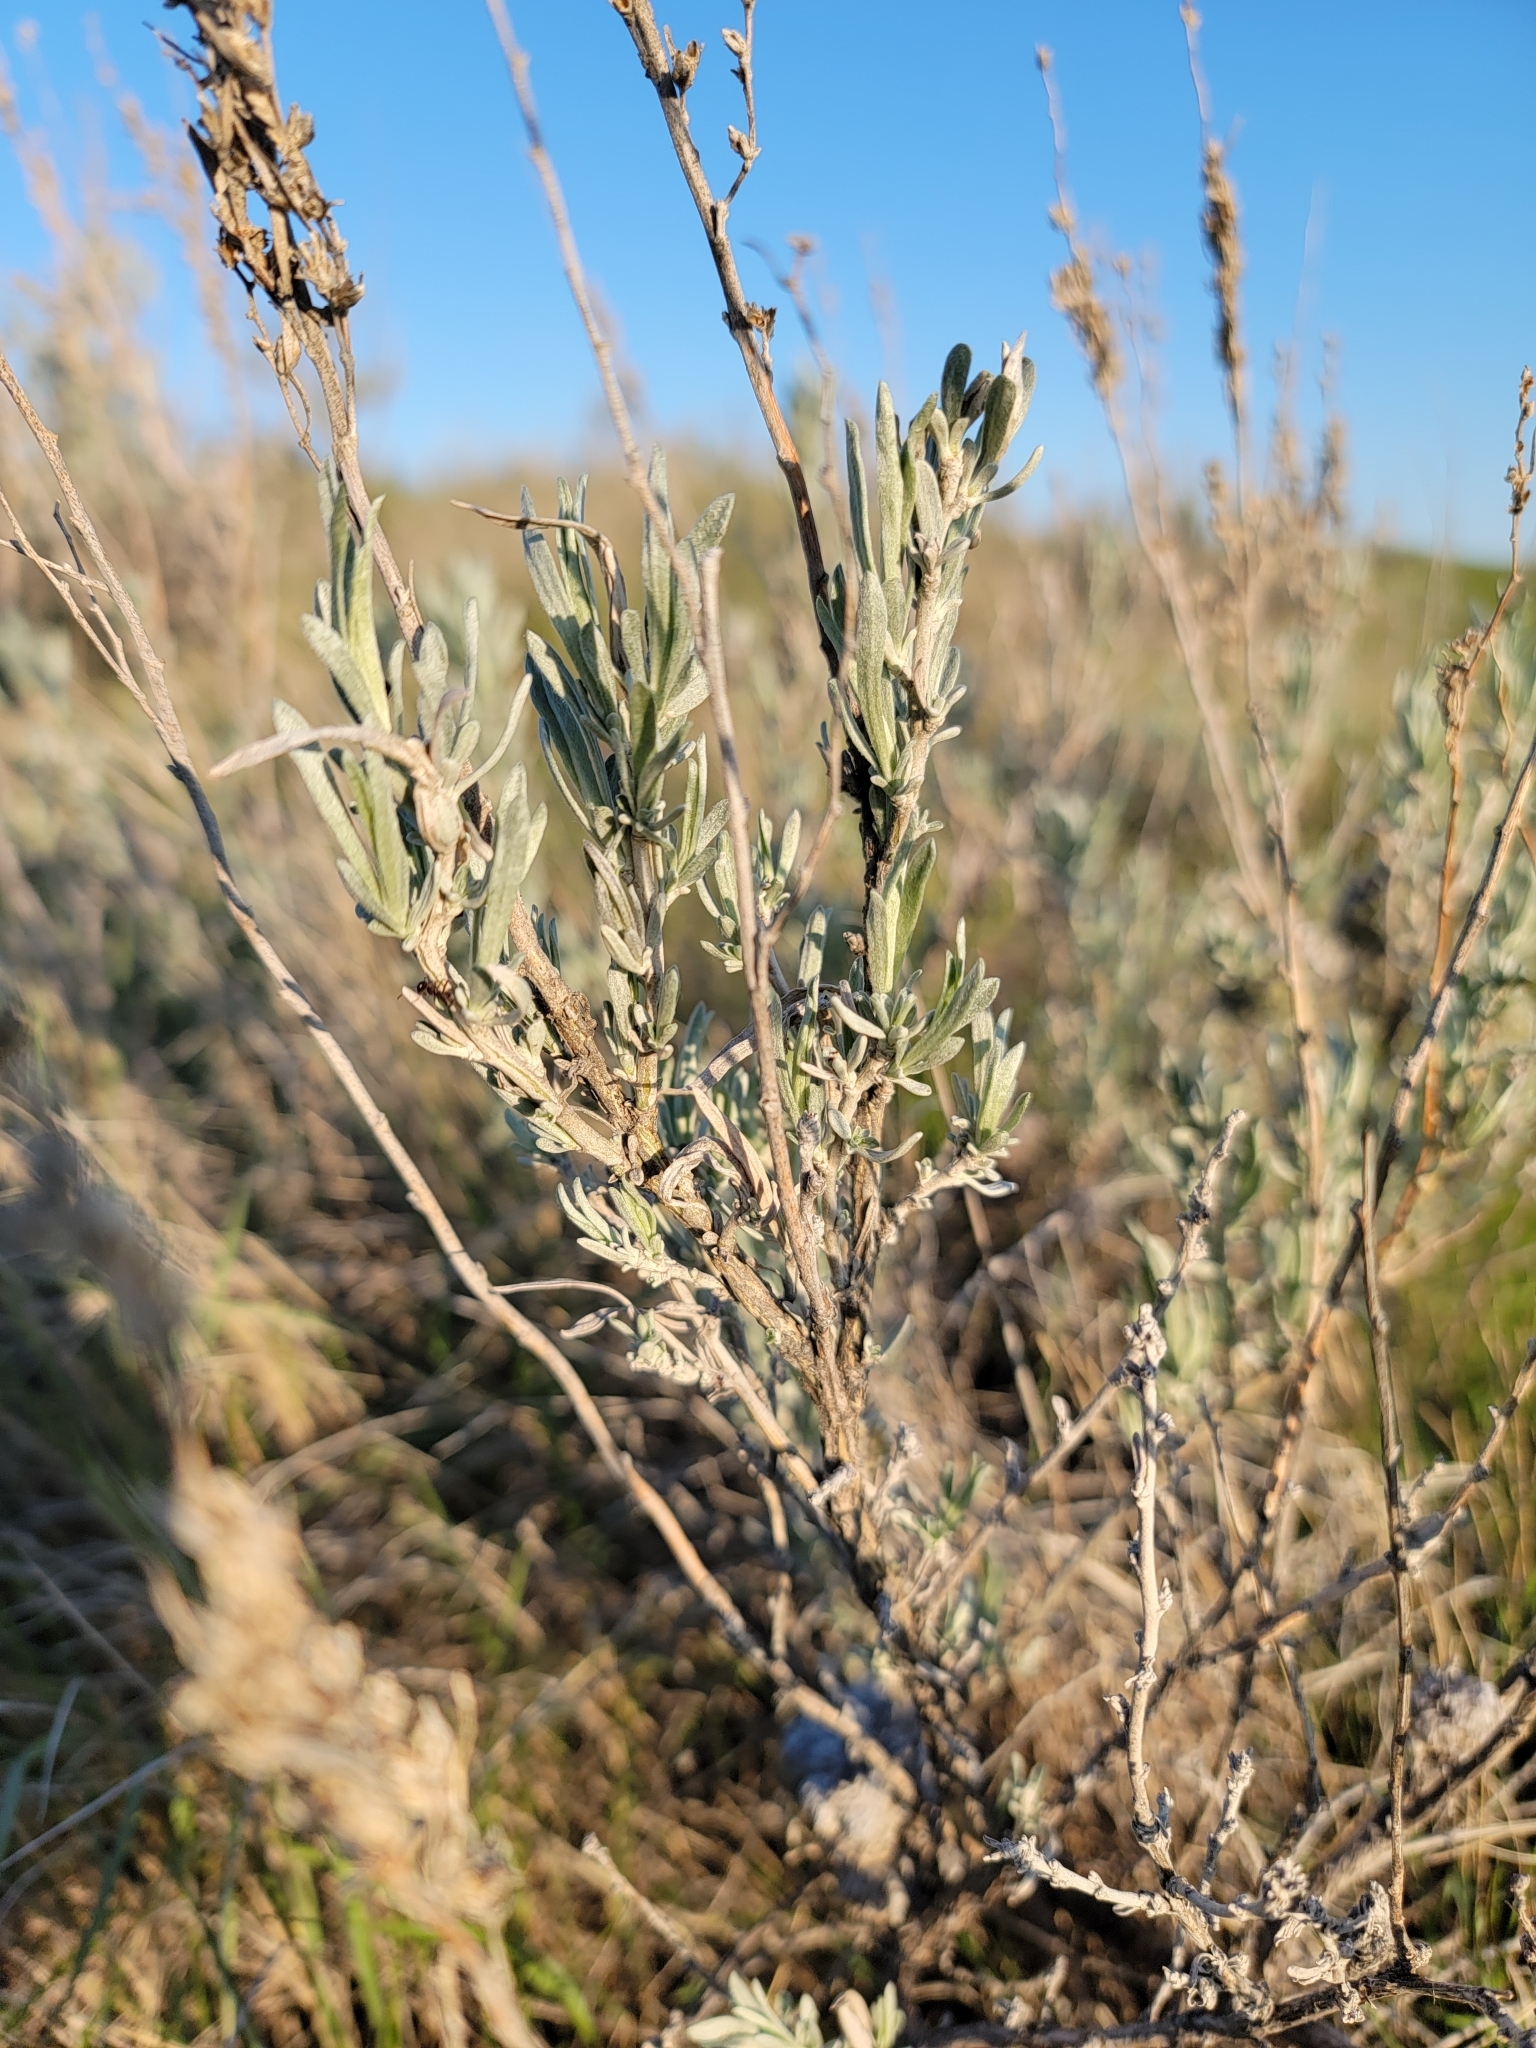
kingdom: Plantae
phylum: Tracheophyta
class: Magnoliopsida
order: Asterales
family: Asteraceae
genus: Artemisia
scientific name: Artemisia cana
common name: Silver sagebrush
